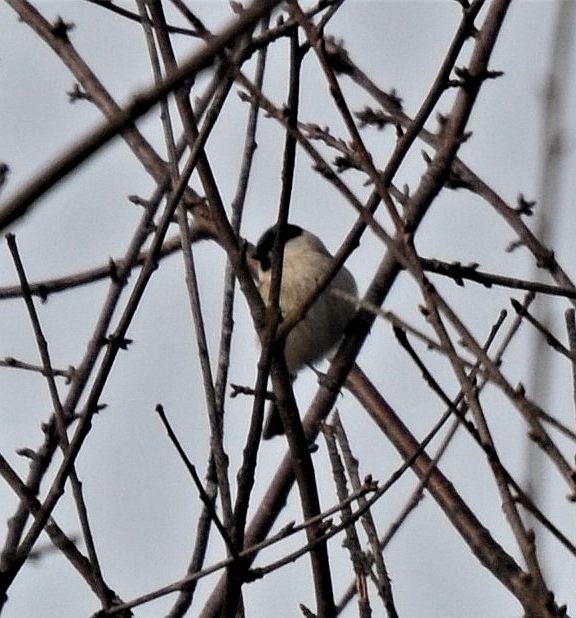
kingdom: Animalia
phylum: Chordata
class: Aves
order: Passeriformes
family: Paridae
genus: Poecile
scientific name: Poecile palustris
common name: Marsh tit
